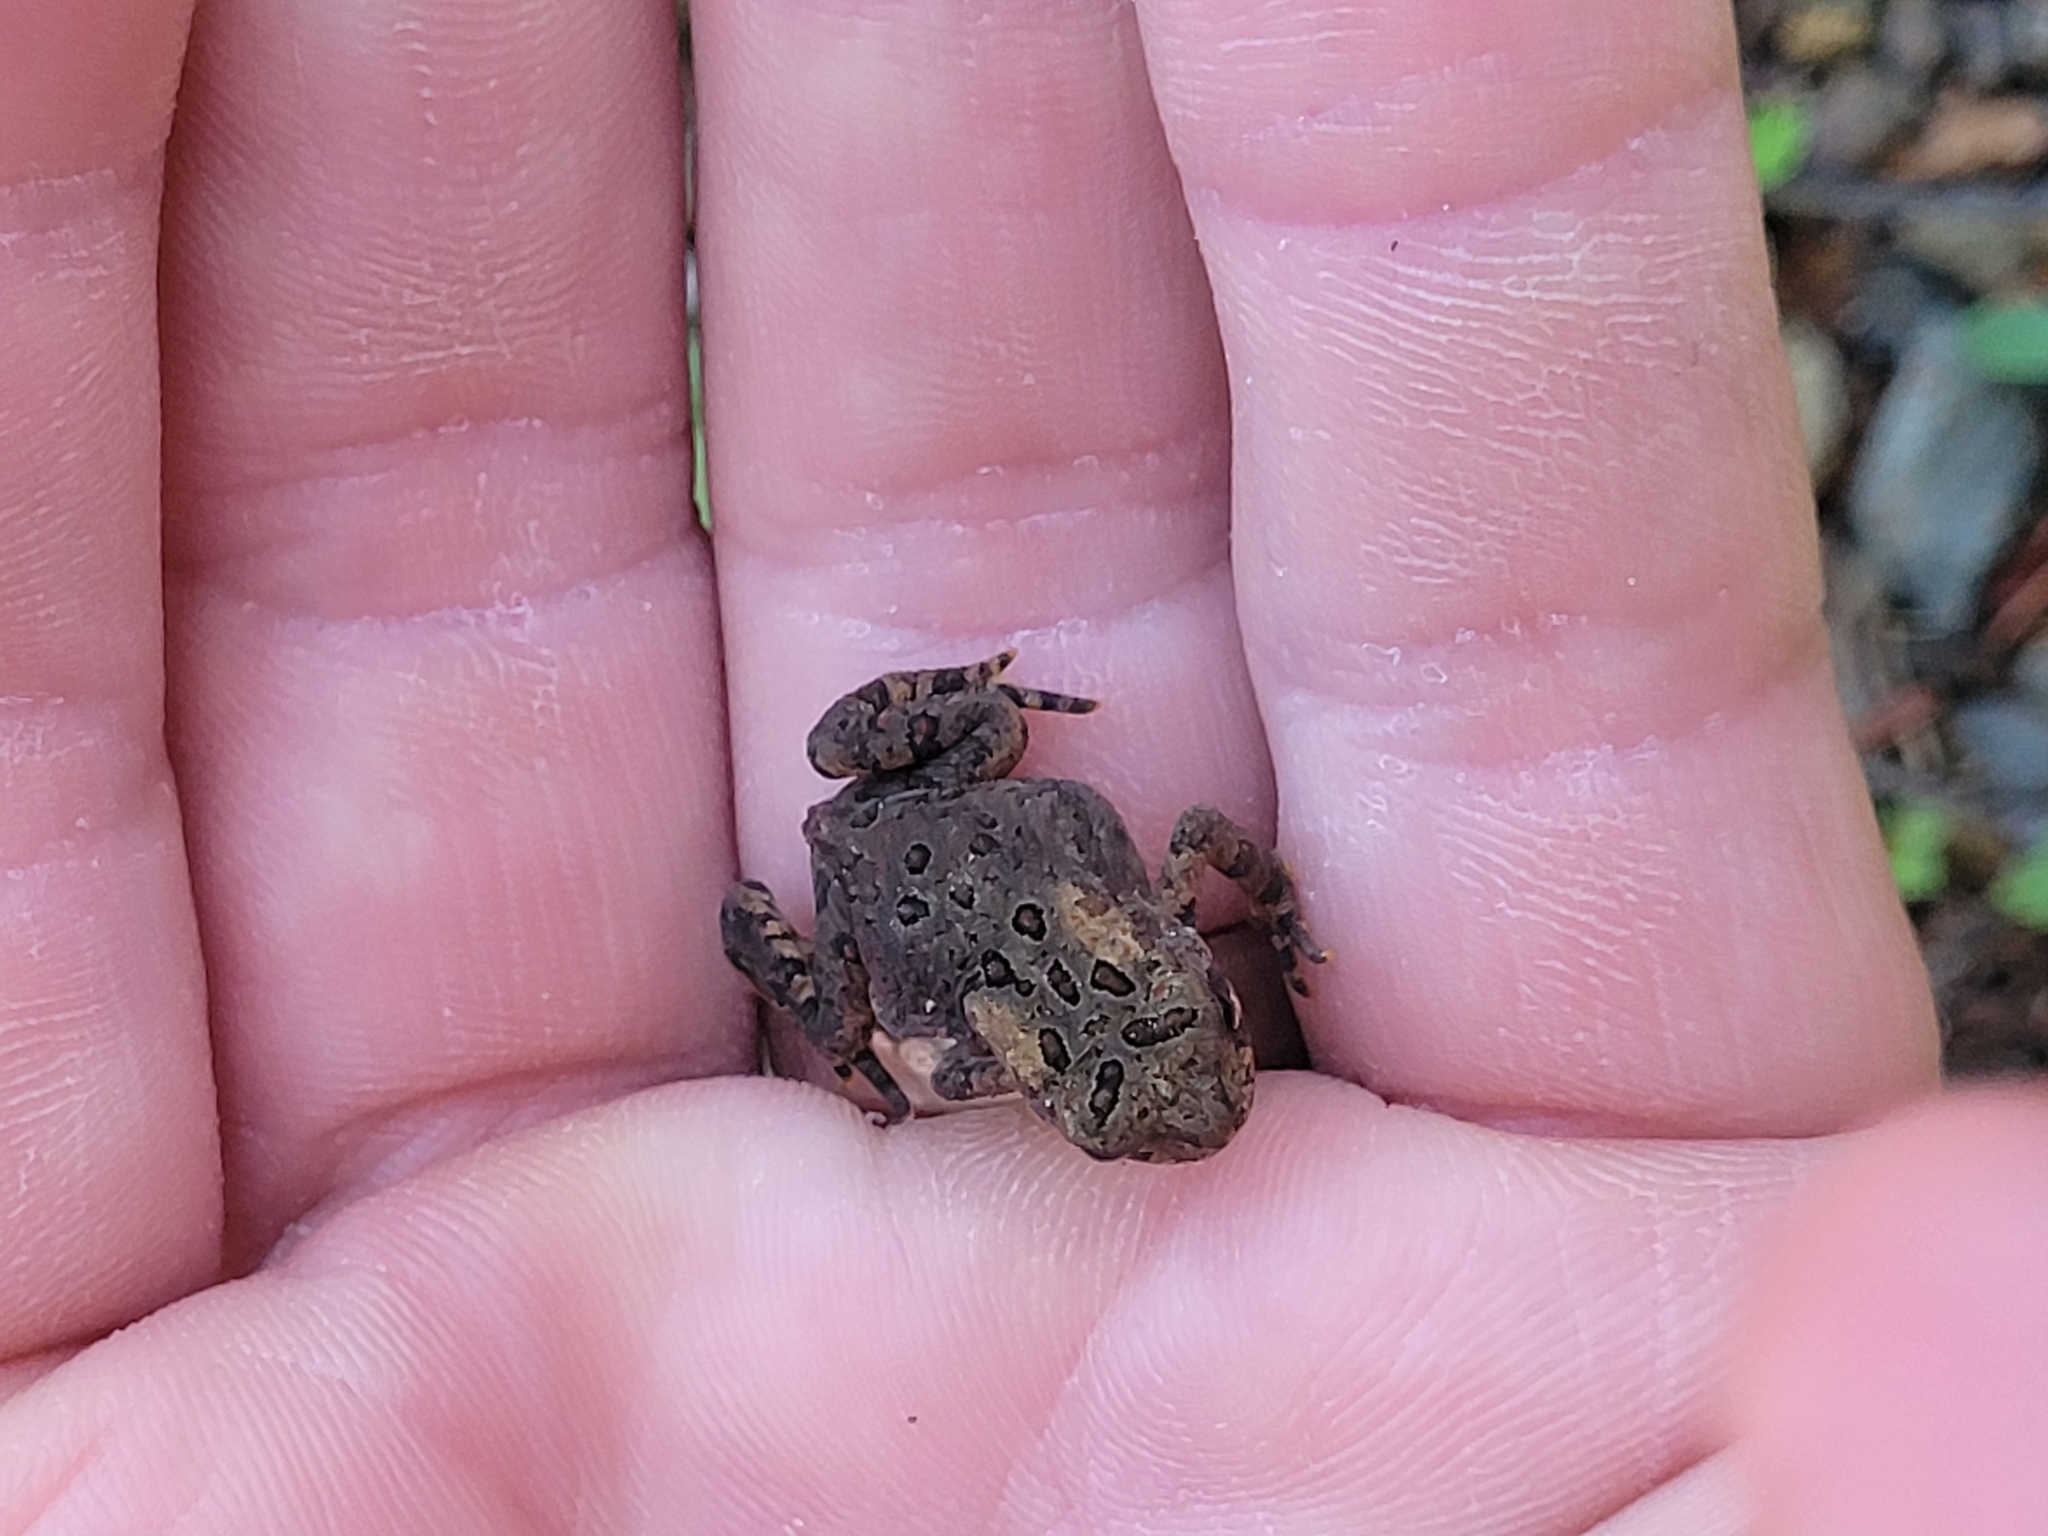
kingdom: Animalia
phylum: Chordata
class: Amphibia
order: Anura
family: Bufonidae
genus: Anaxyrus
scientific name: Anaxyrus americanus
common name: American toad
